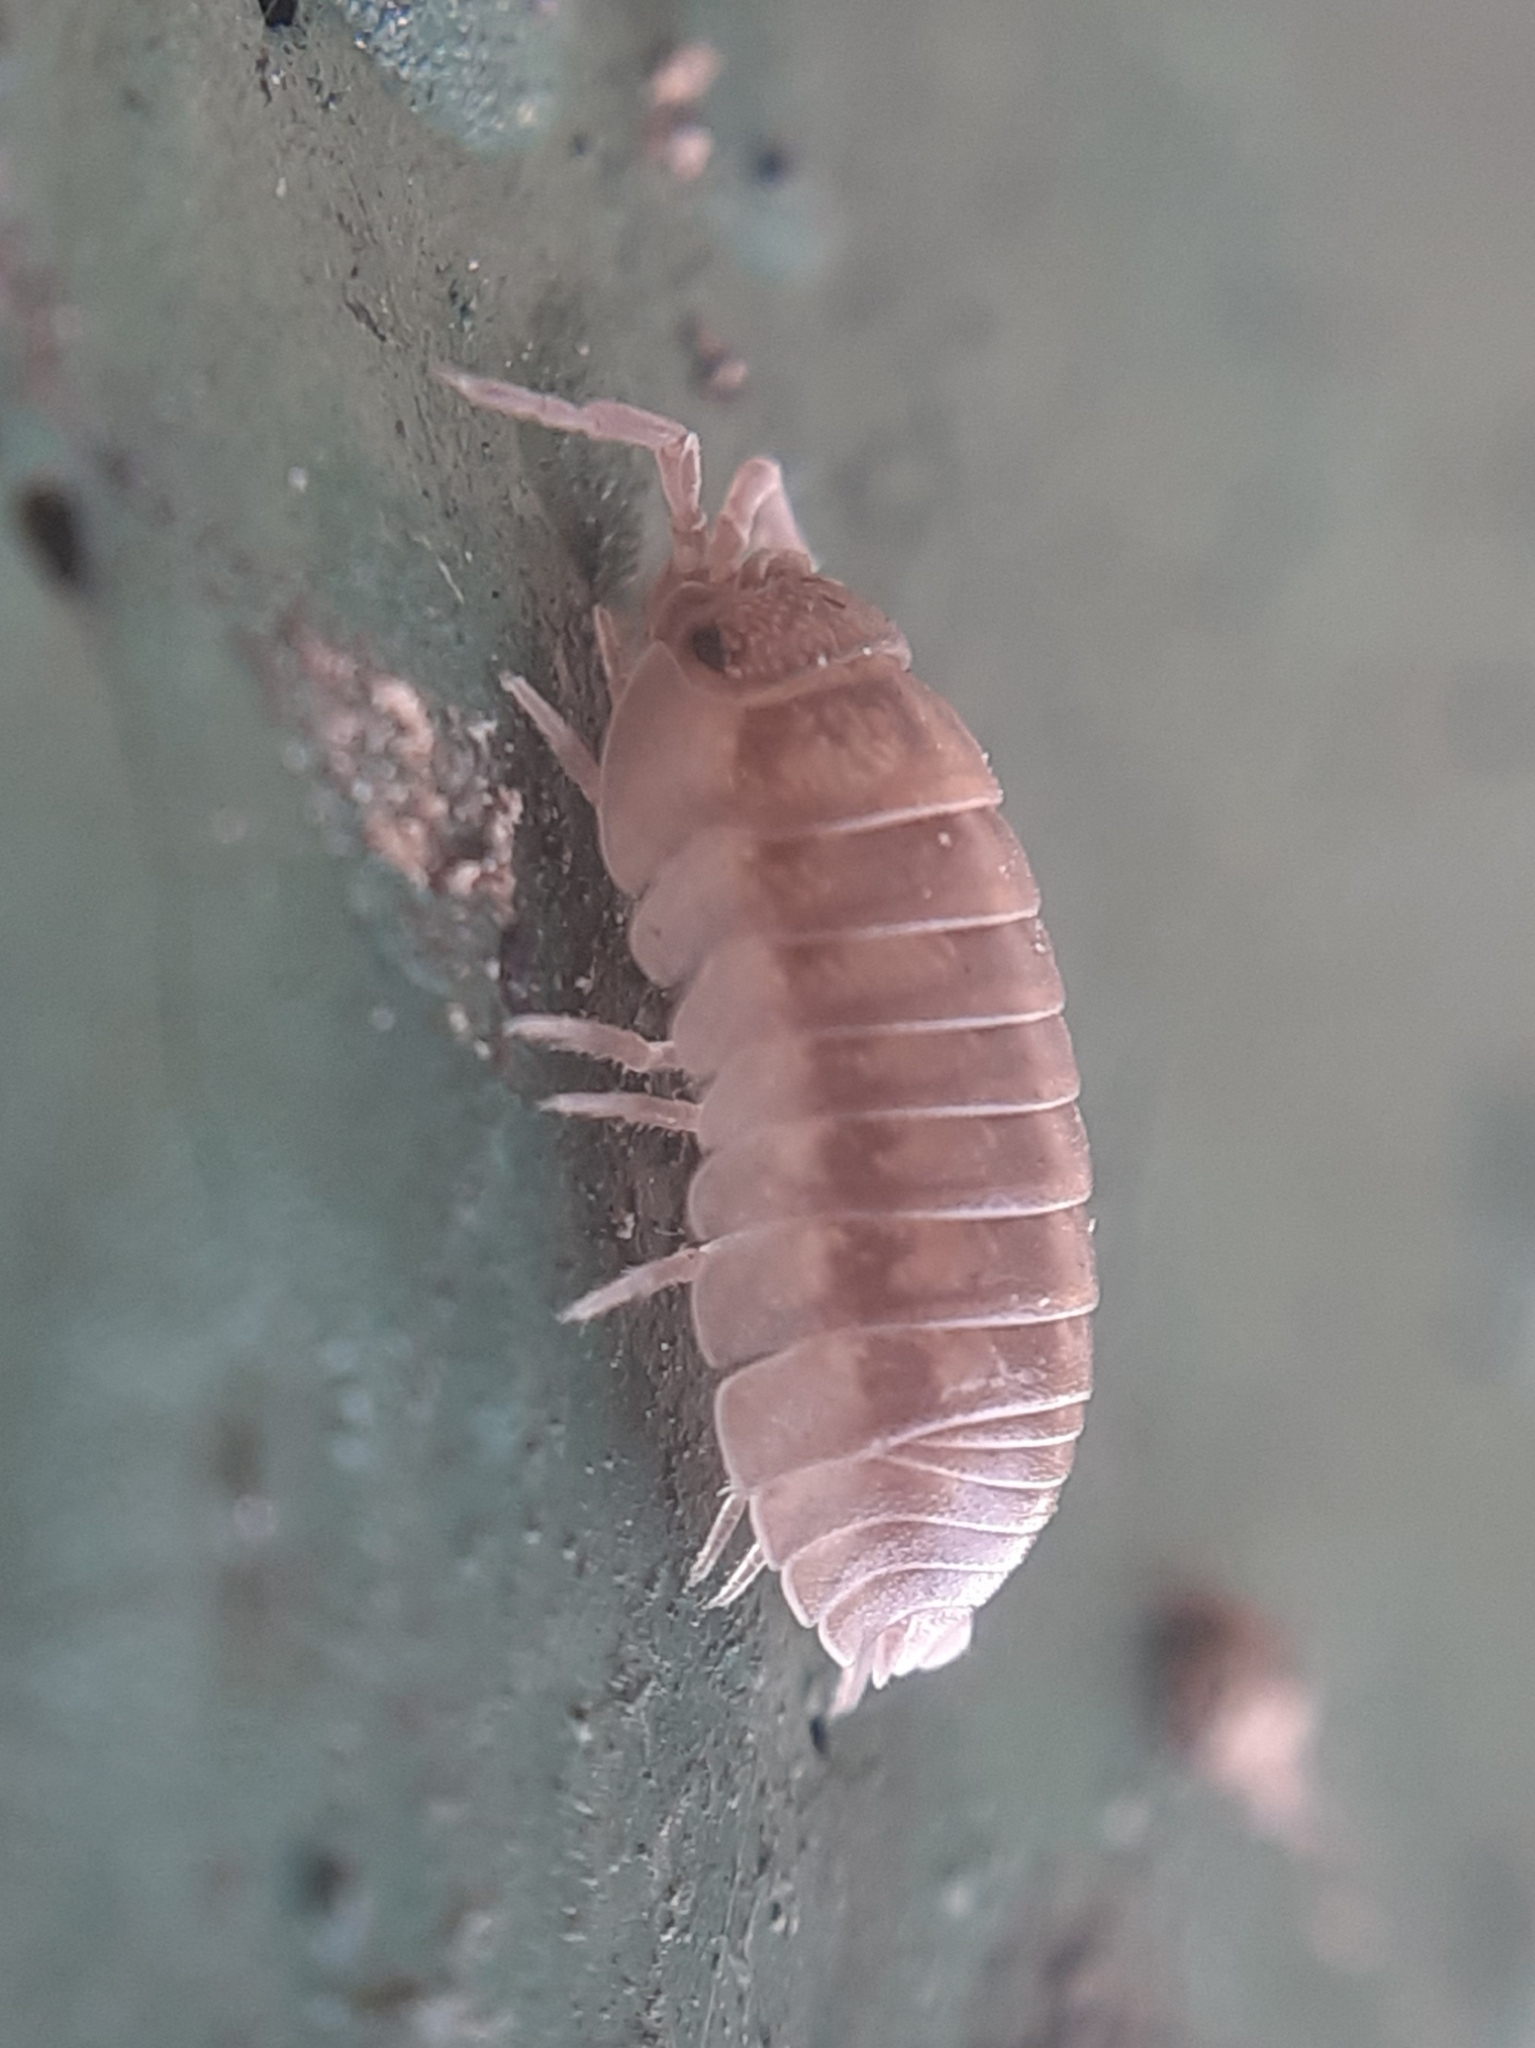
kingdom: Animalia
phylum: Arthropoda
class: Malacostraca
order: Isopoda
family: Armadillidiidae
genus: Armadillidium
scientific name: Armadillidium nasatum
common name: Isopod
